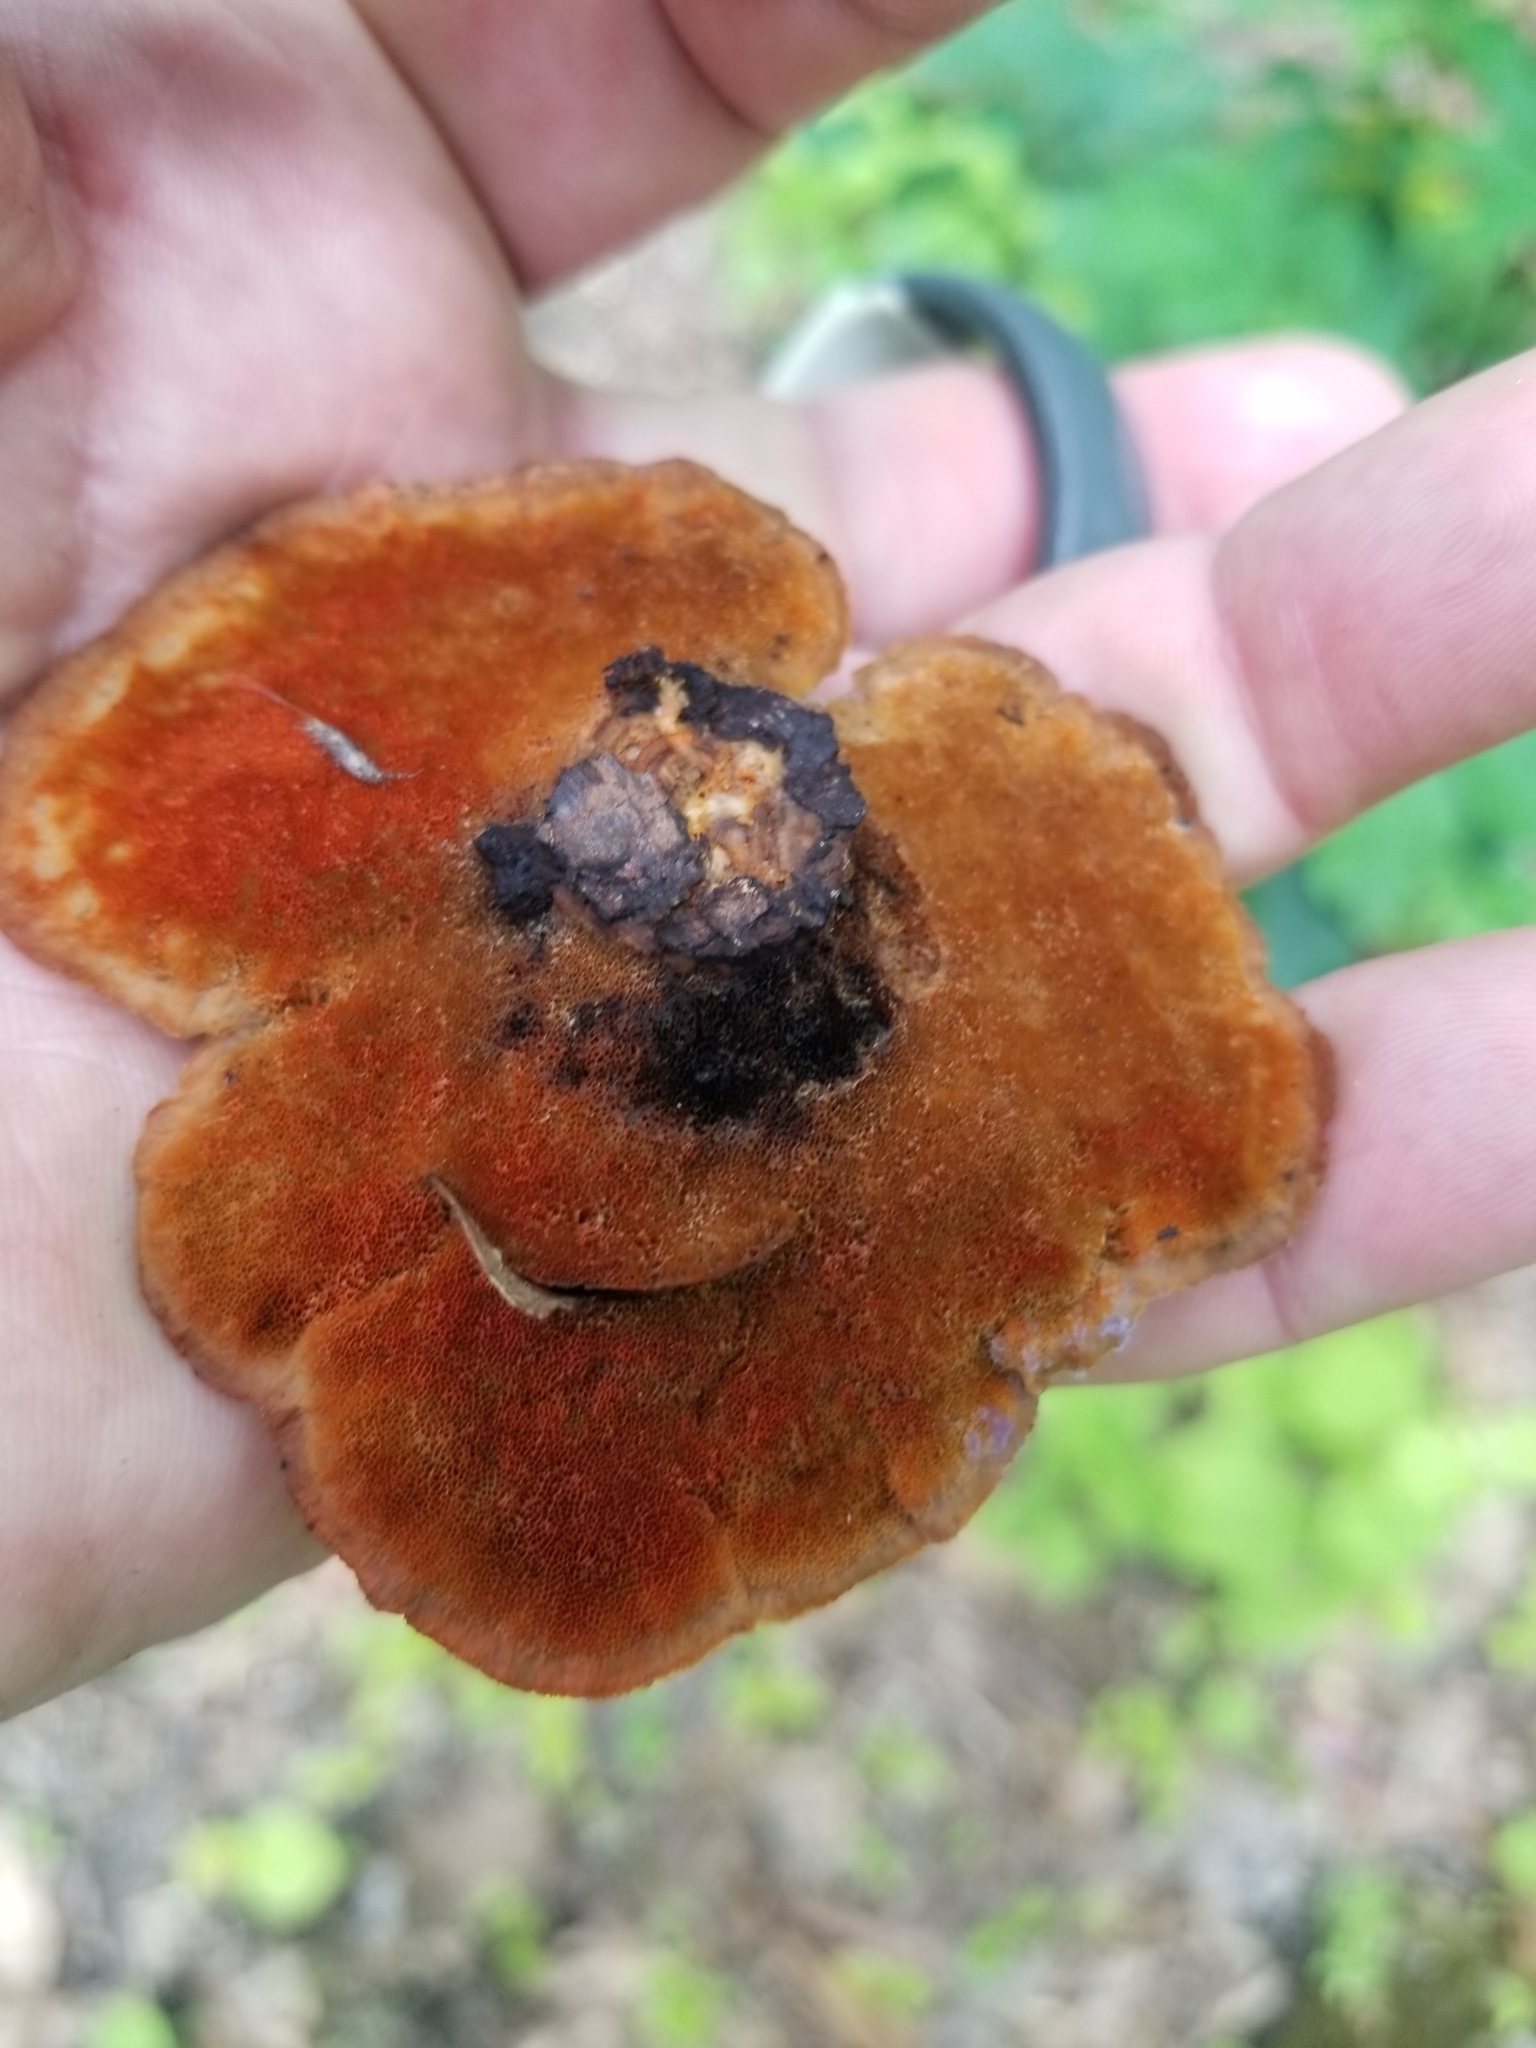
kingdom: Fungi
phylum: Basidiomycota
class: Agaricomycetes
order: Polyporales
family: Polyporaceae
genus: Trametes
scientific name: Trametes cinnabarina
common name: Northern cinnabar polypore
